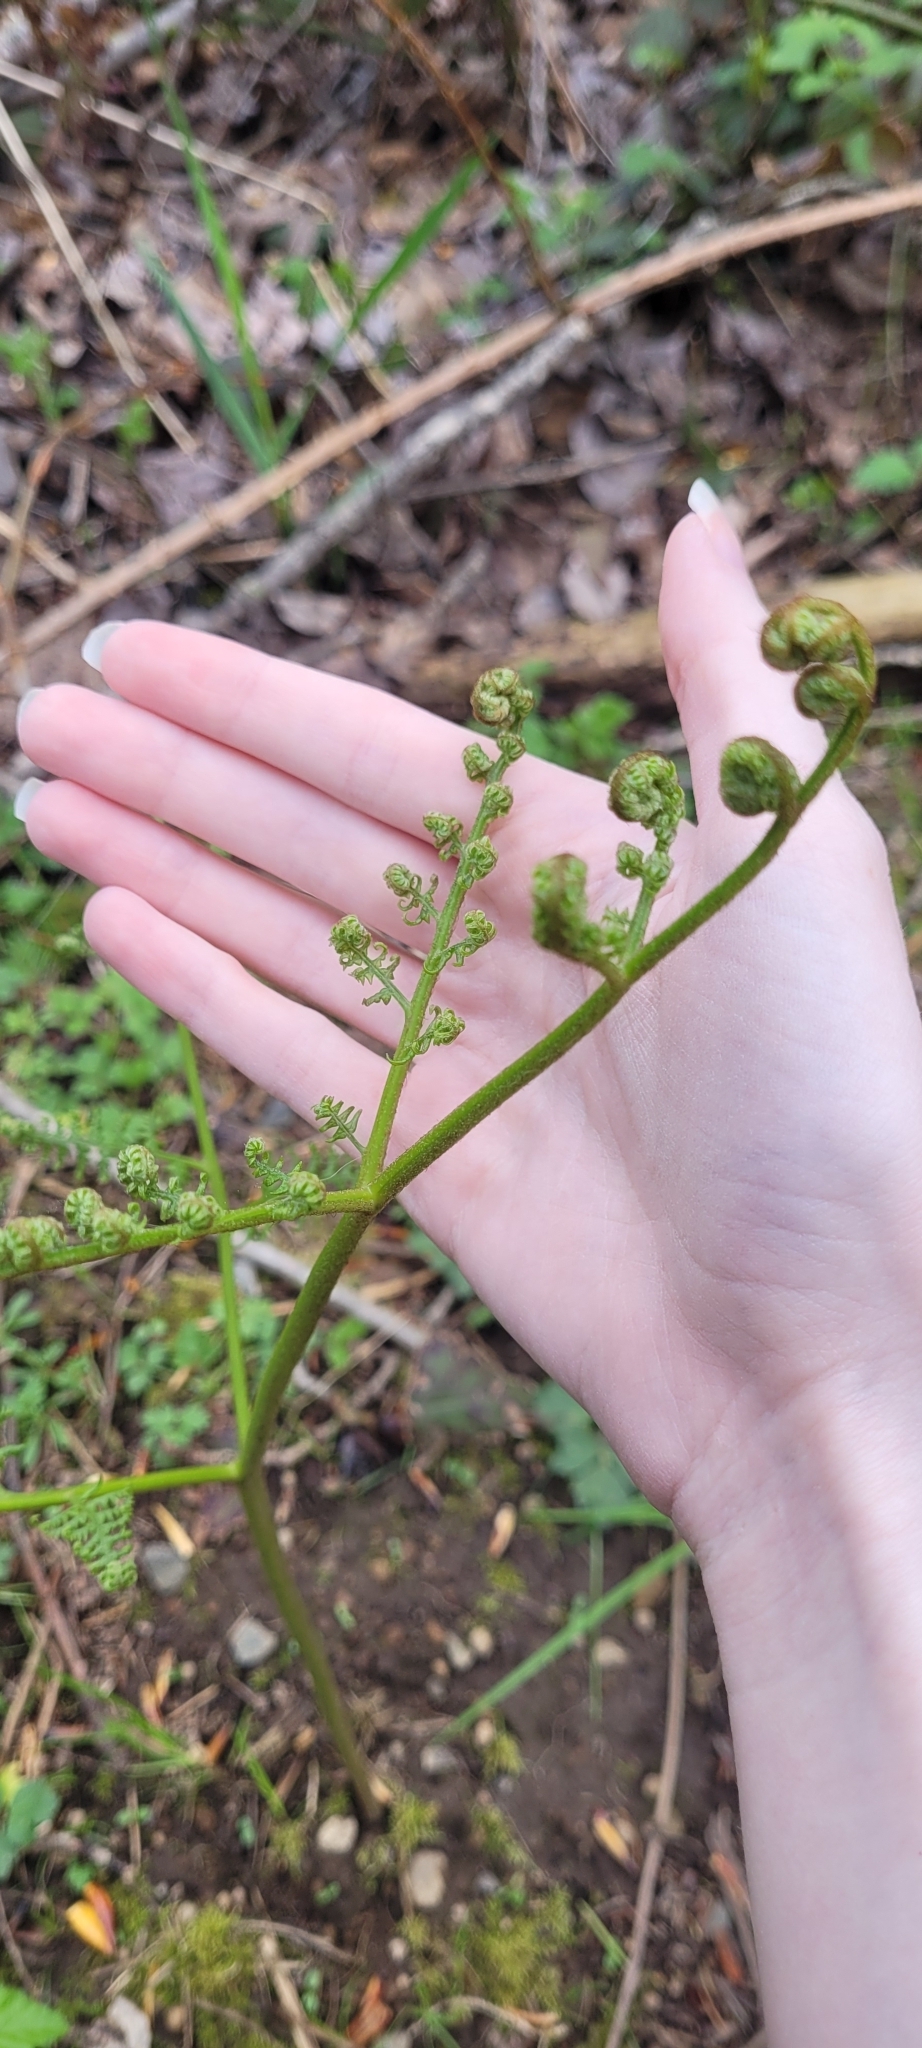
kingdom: Plantae
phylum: Tracheophyta
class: Polypodiopsida
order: Polypodiales
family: Dennstaedtiaceae
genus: Pteridium
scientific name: Pteridium aquilinum
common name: Bracken
